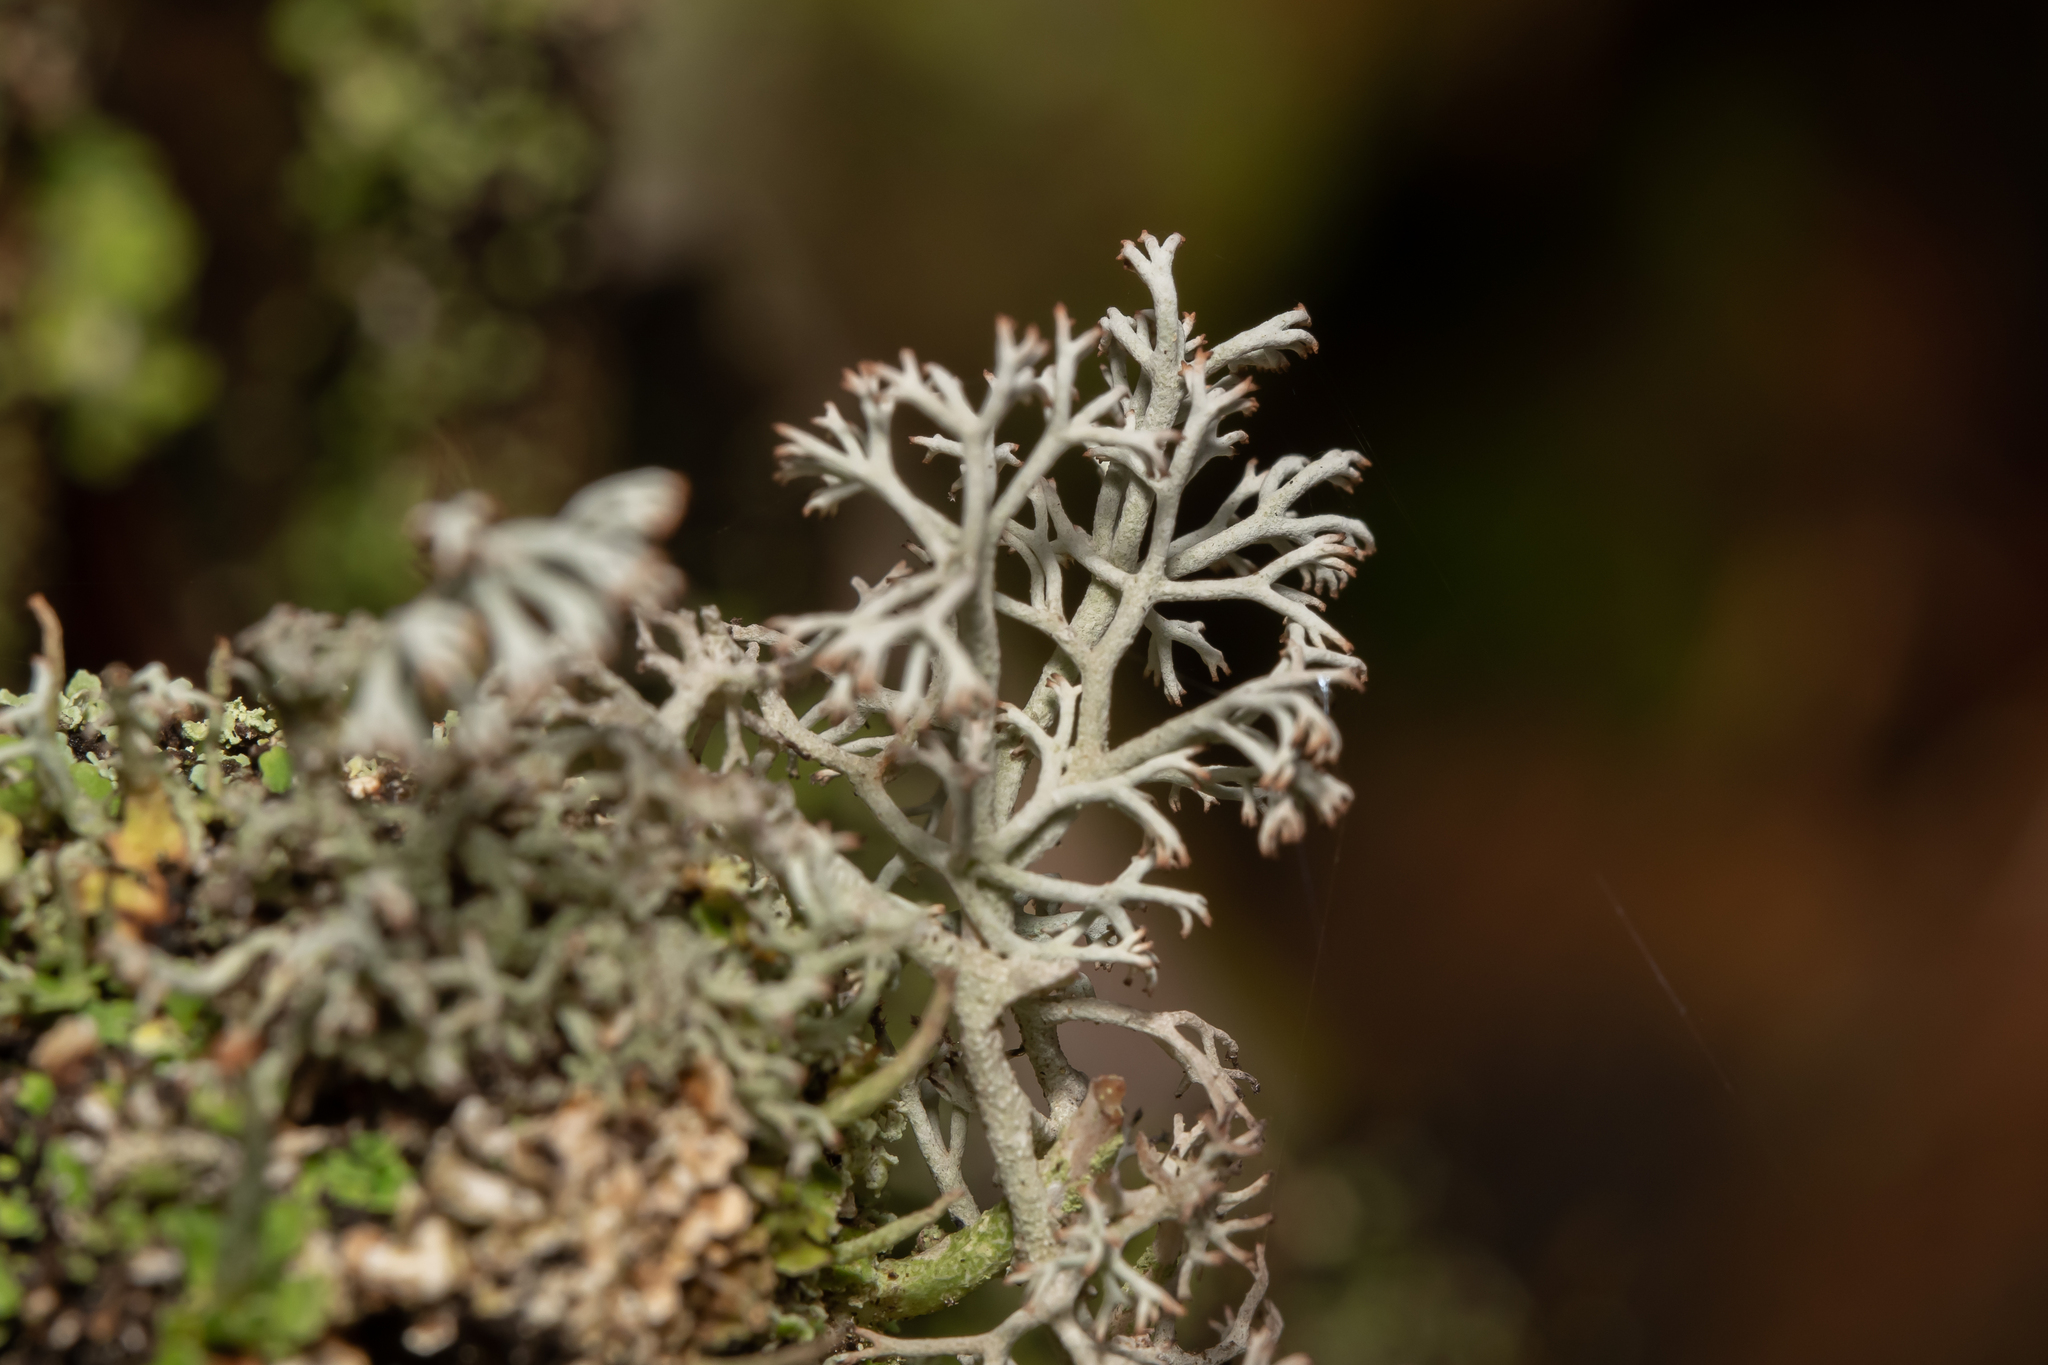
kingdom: Fungi
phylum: Ascomycota
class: Lecanoromycetes
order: Lecanorales
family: Cladoniaceae
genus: Cladonia
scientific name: Cladonia rangiferina
